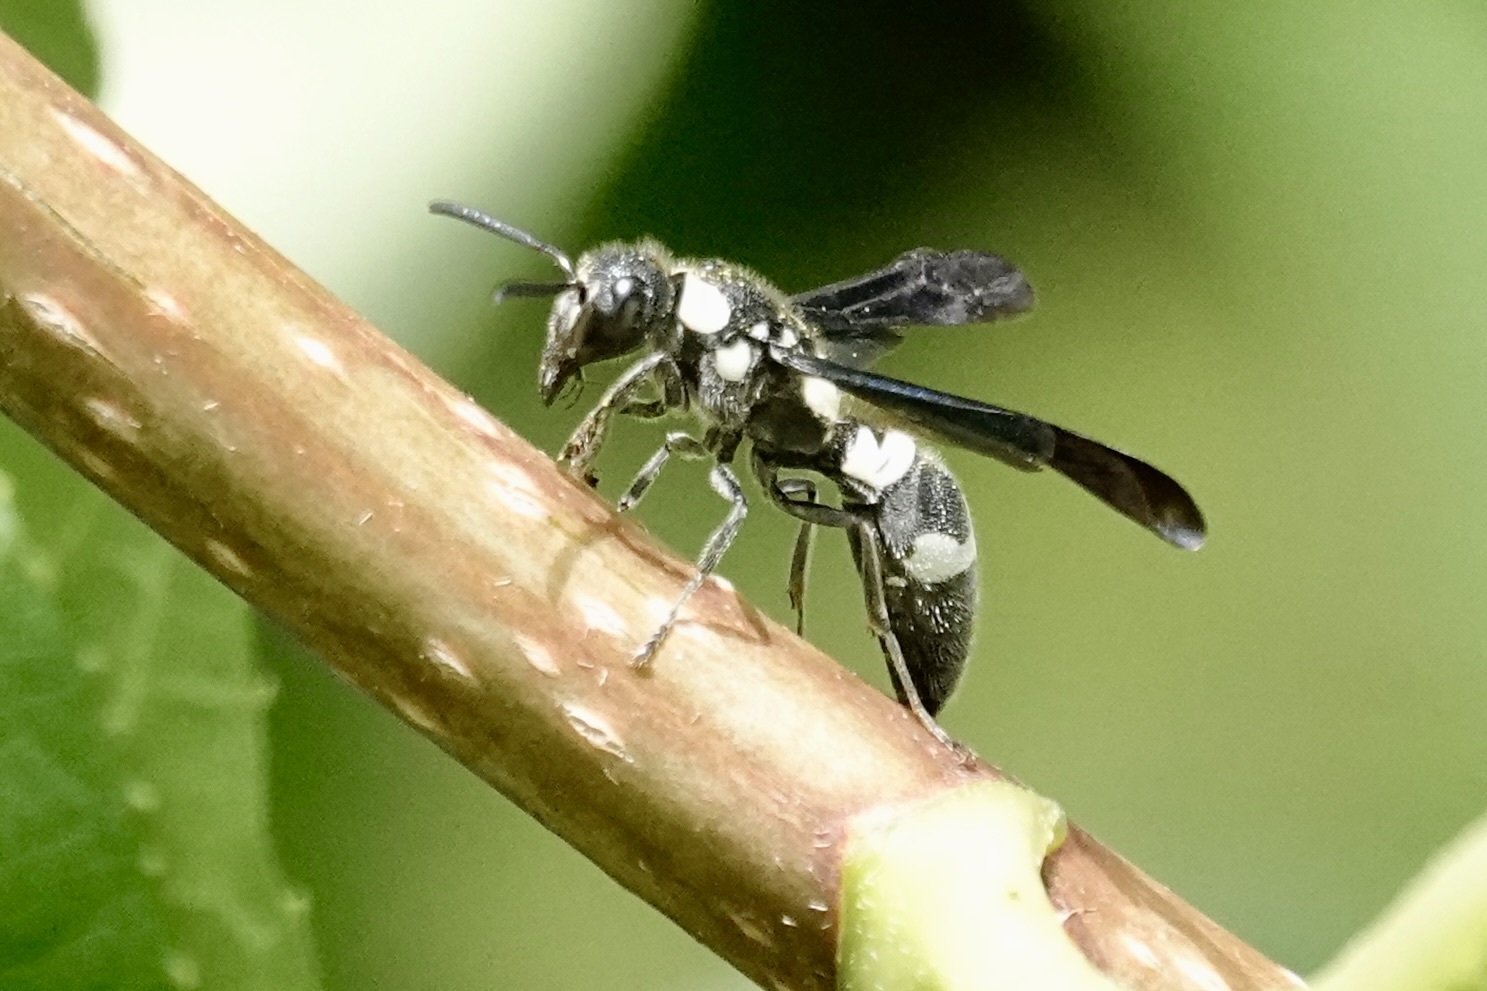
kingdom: Animalia
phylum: Arthropoda
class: Insecta
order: Hymenoptera
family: Eumenidae
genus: Pseudodynerus
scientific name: Pseudodynerus quadrisectus
